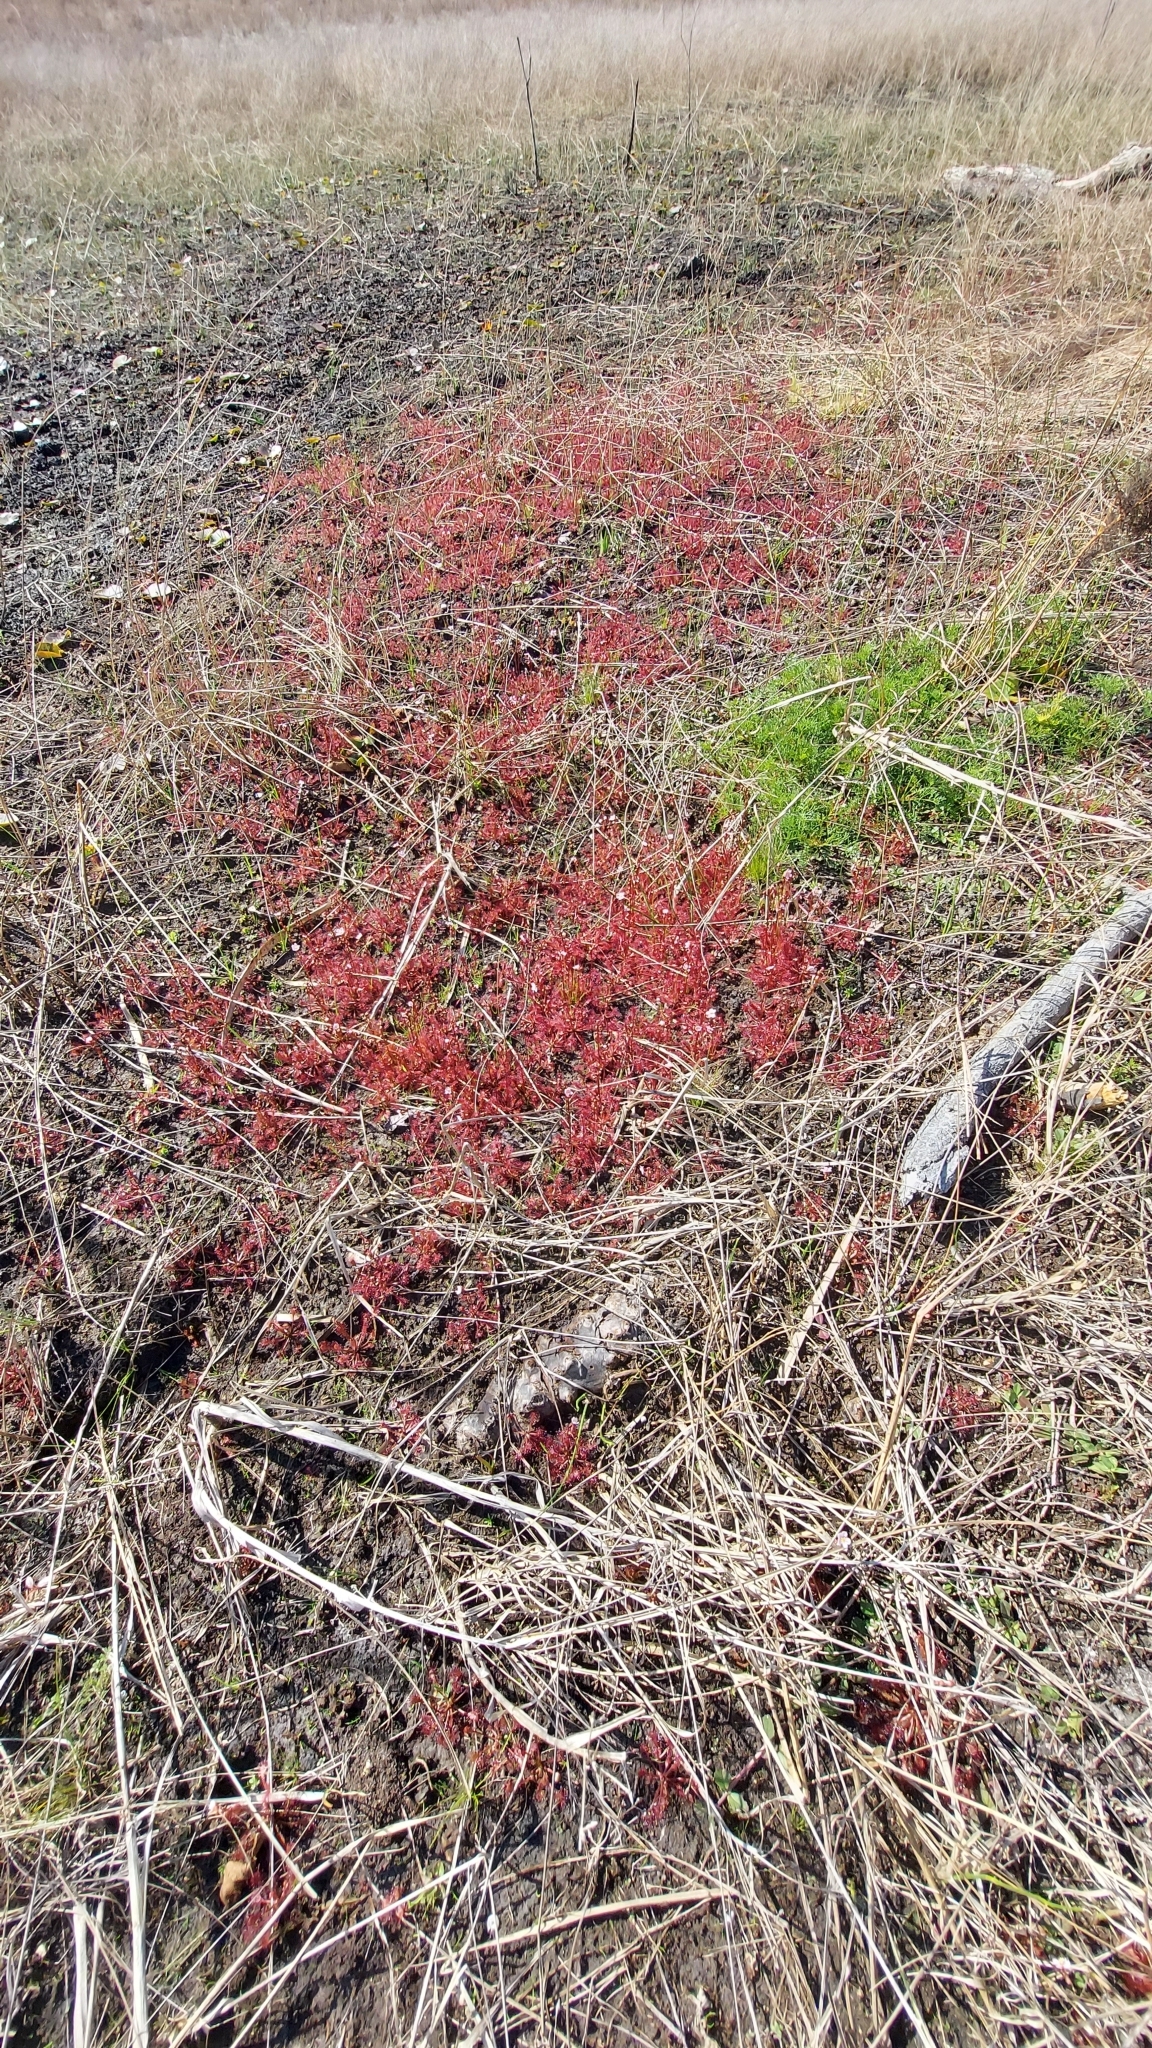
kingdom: Plantae
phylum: Tracheophyta
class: Magnoliopsida
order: Caryophyllales
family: Droseraceae
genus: Drosera
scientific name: Drosera capillaris
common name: Pink sundew
